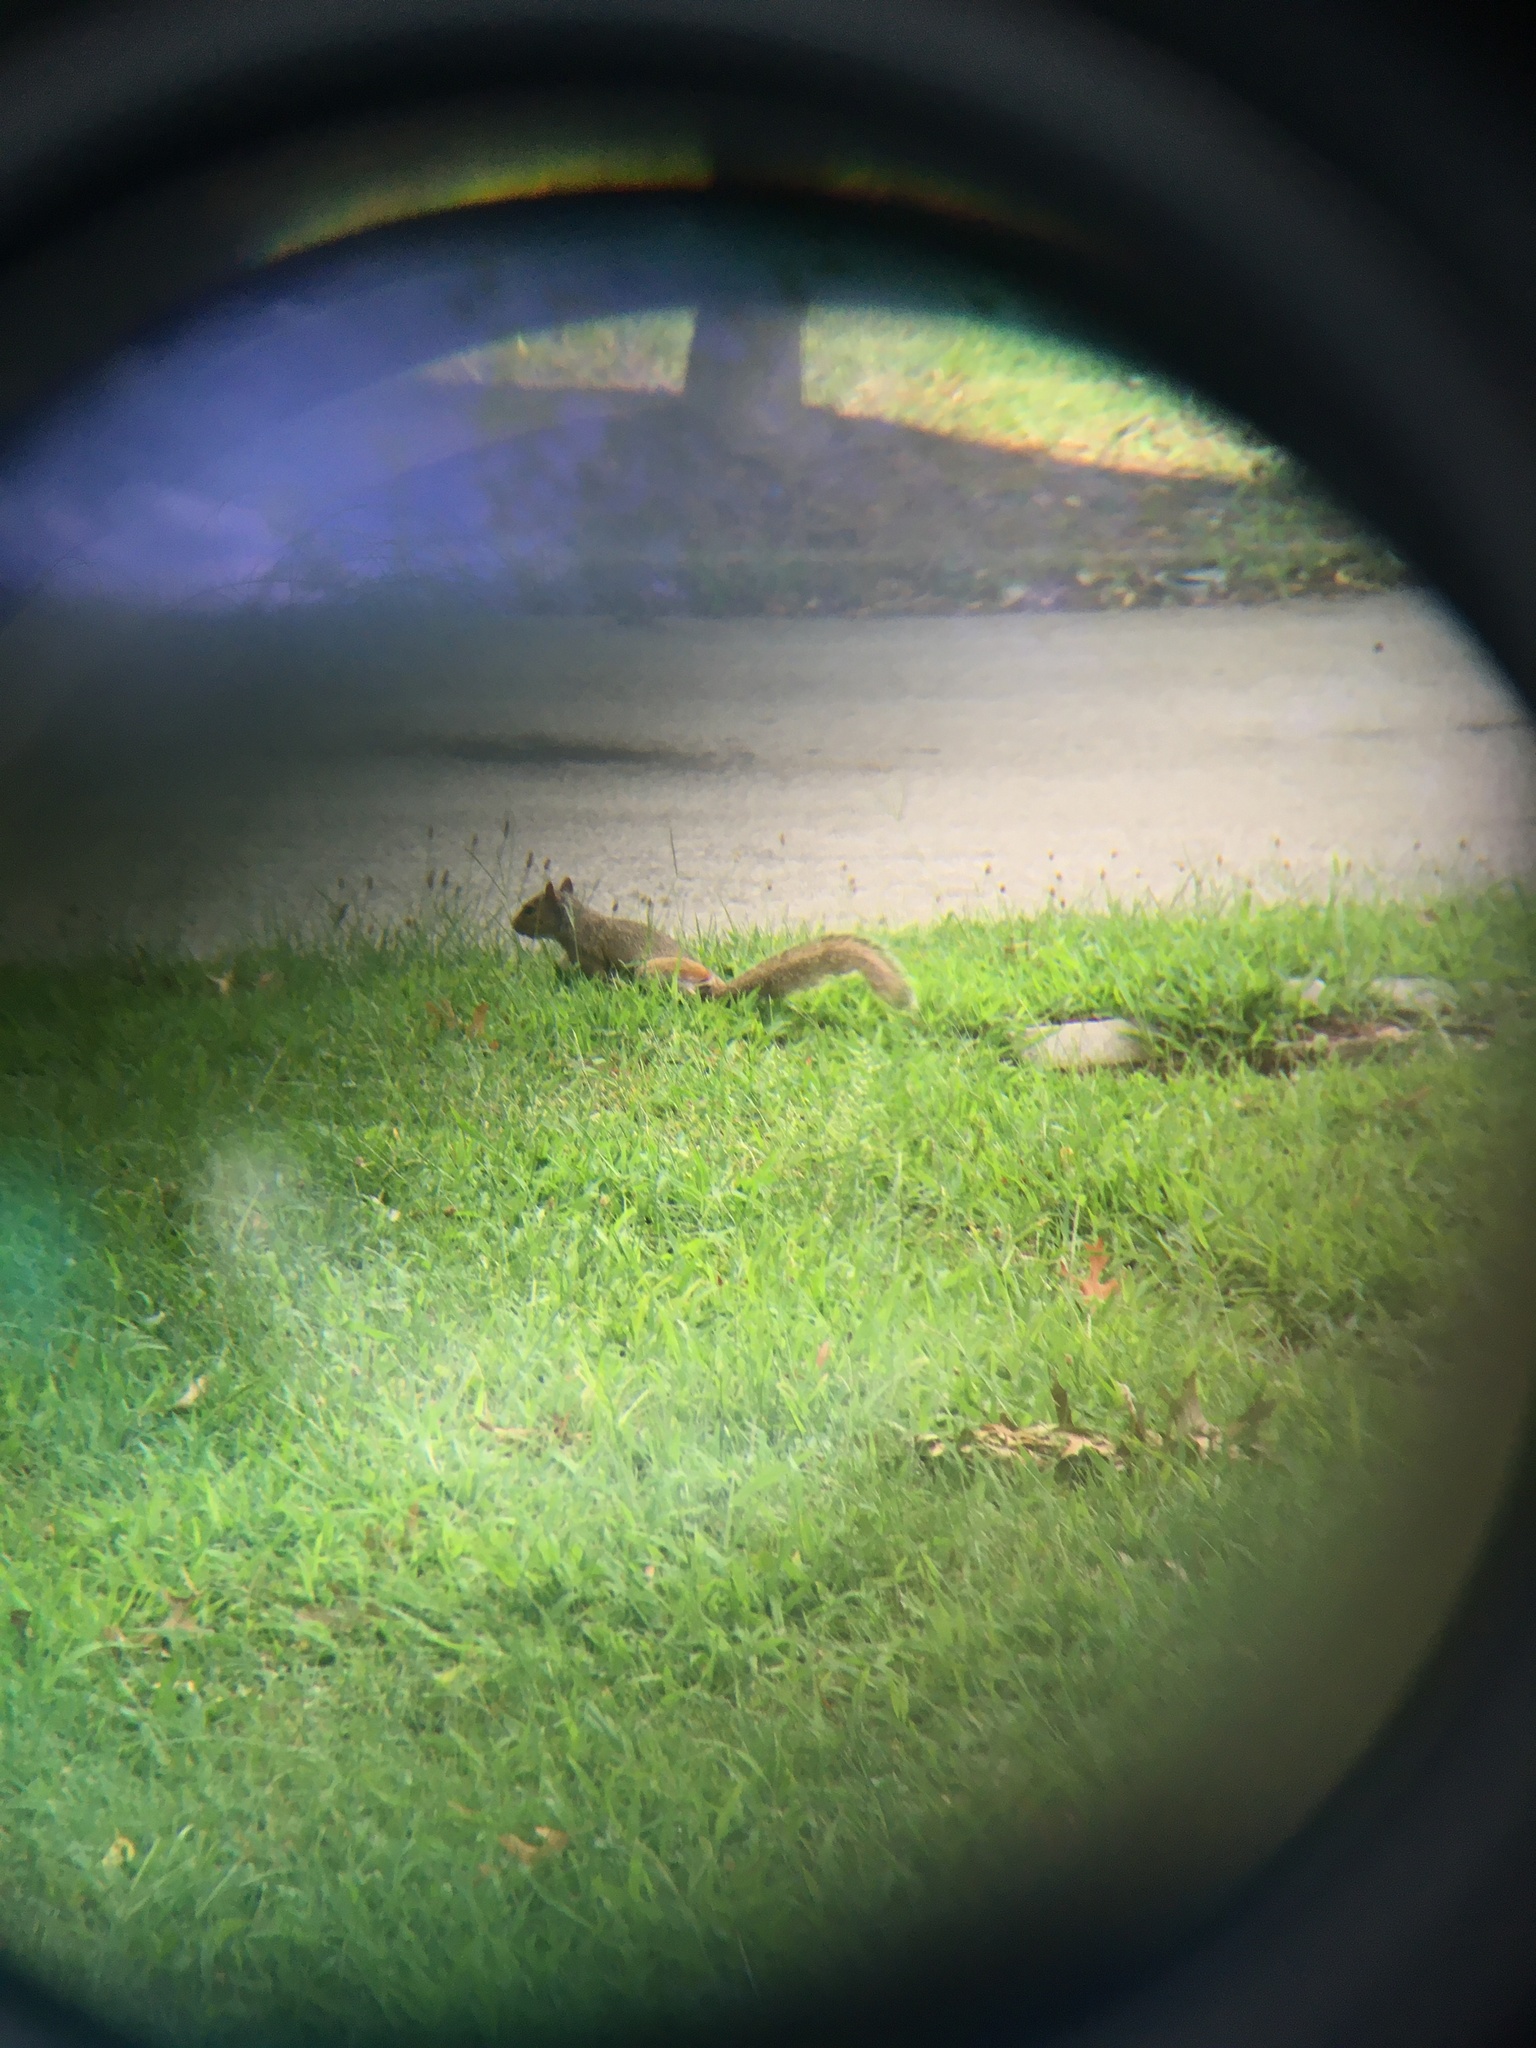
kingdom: Animalia
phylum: Chordata
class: Mammalia
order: Rodentia
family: Sciuridae
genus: Sciurus
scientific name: Sciurus carolinensis
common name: Eastern gray squirrel
